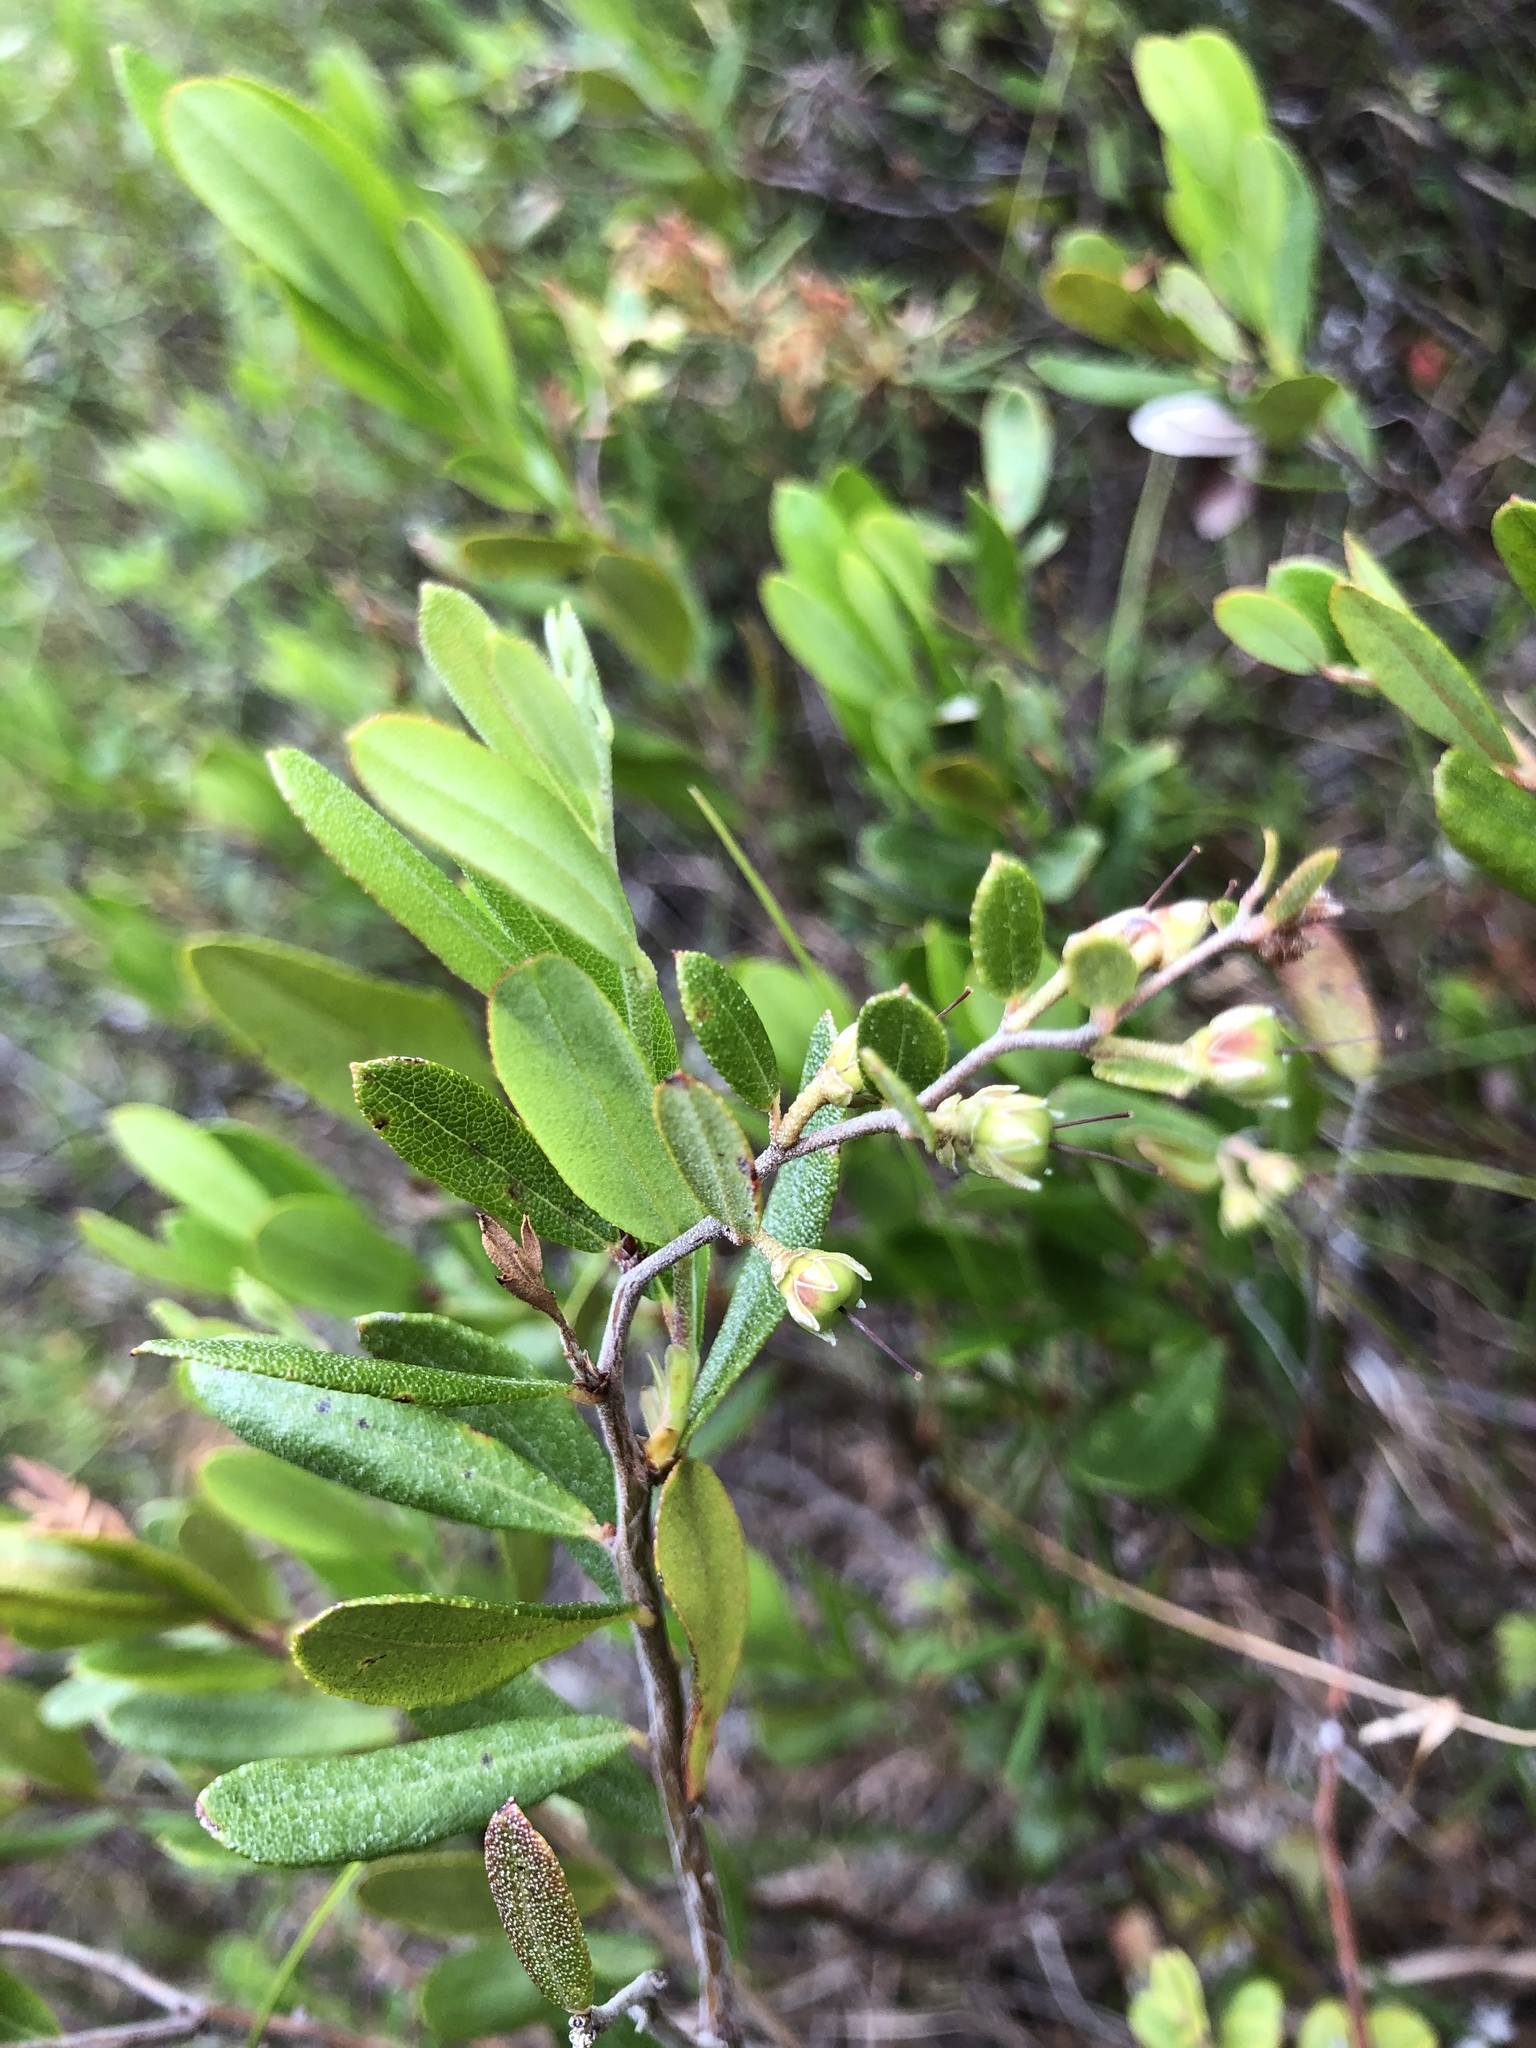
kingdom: Plantae
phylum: Tracheophyta
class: Magnoliopsida
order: Ericales
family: Ericaceae
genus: Chamaedaphne
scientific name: Chamaedaphne calyculata
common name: Leatherleaf
